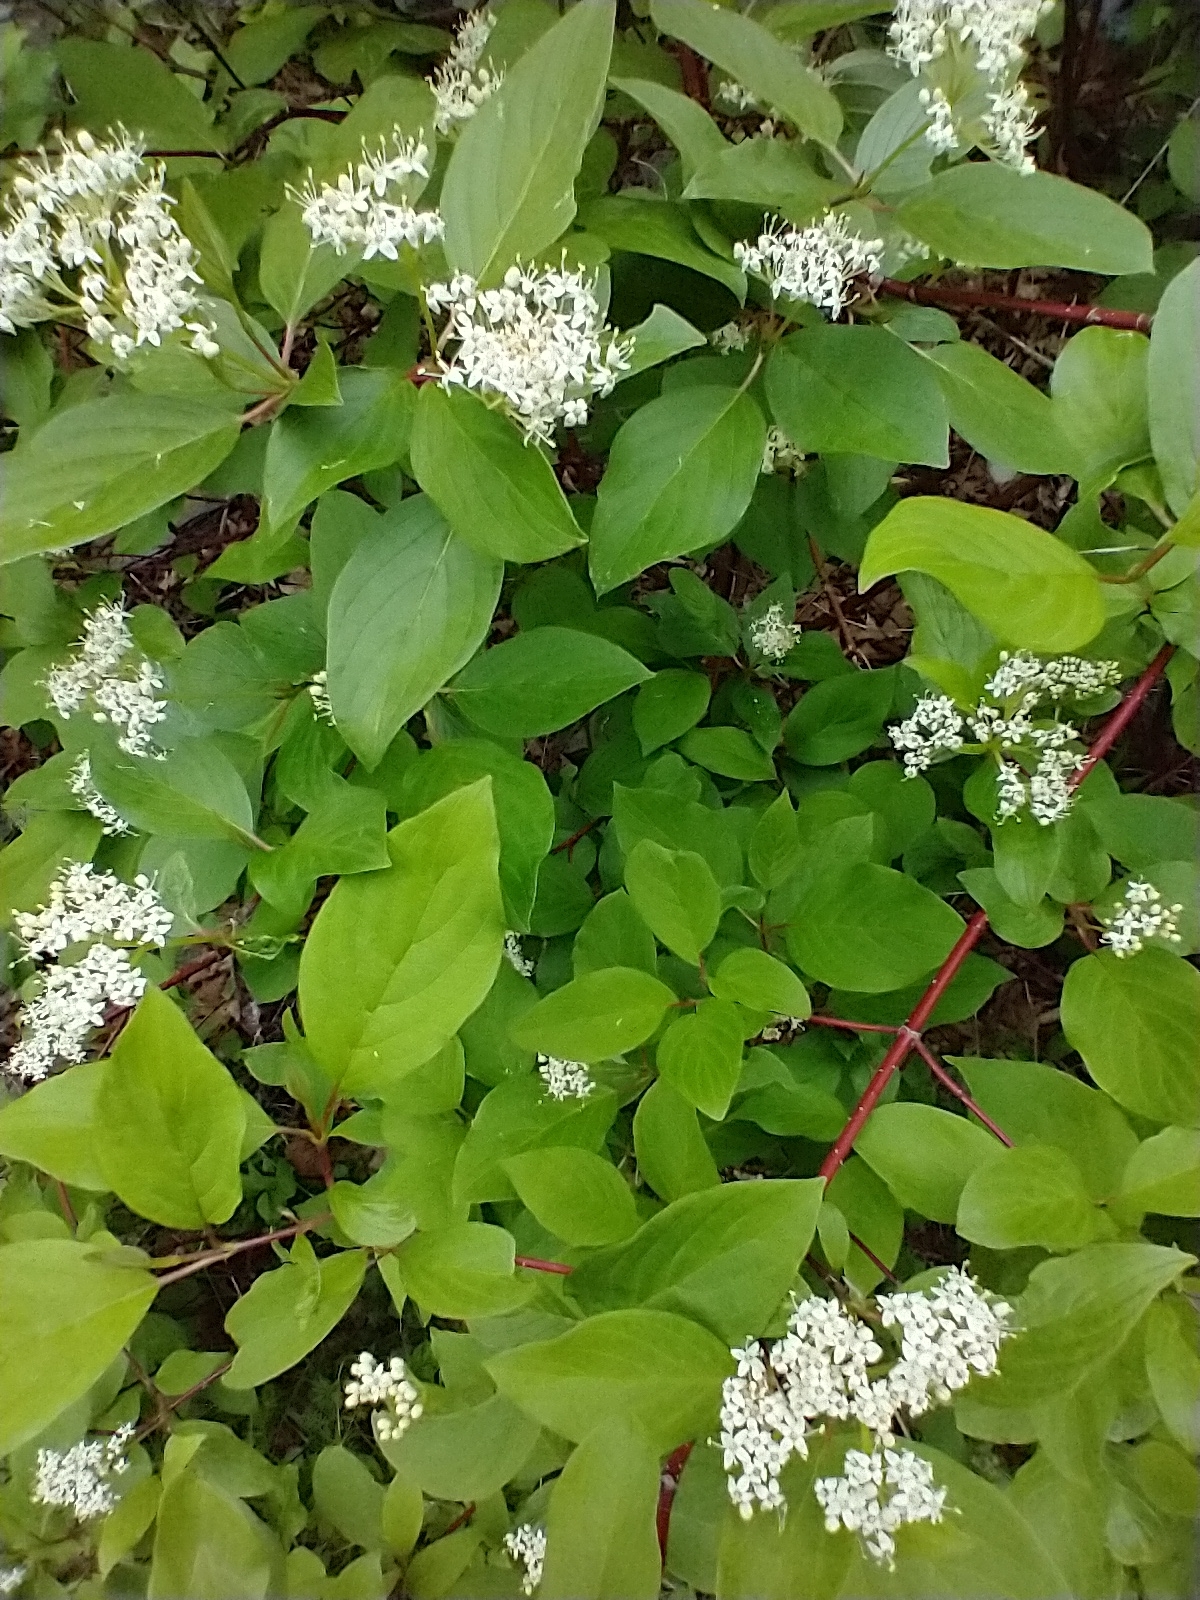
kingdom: Plantae
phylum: Tracheophyta
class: Magnoliopsida
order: Cornales
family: Cornaceae
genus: Cornus
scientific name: Cornus sericea
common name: Red-osier dogwood
